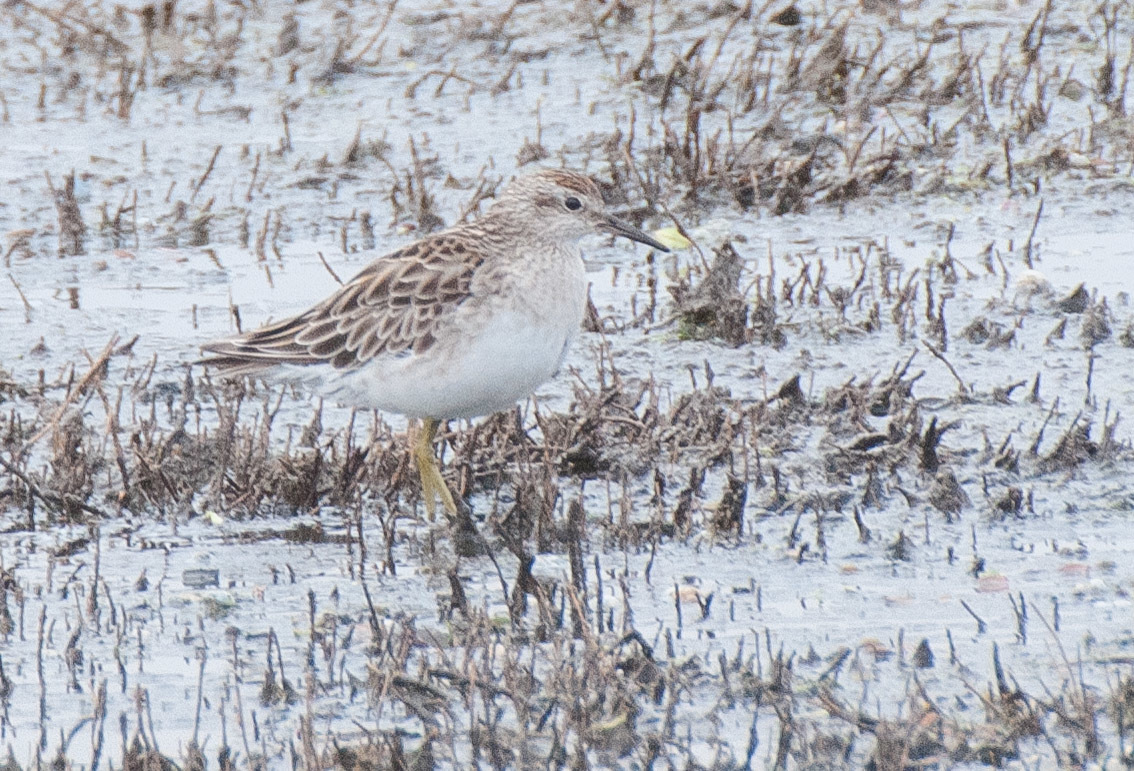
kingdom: Animalia
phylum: Chordata
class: Aves
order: Charadriiformes
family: Scolopacidae
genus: Calidris
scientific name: Calidris acuminata
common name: Sharp-tailed sandpiper
